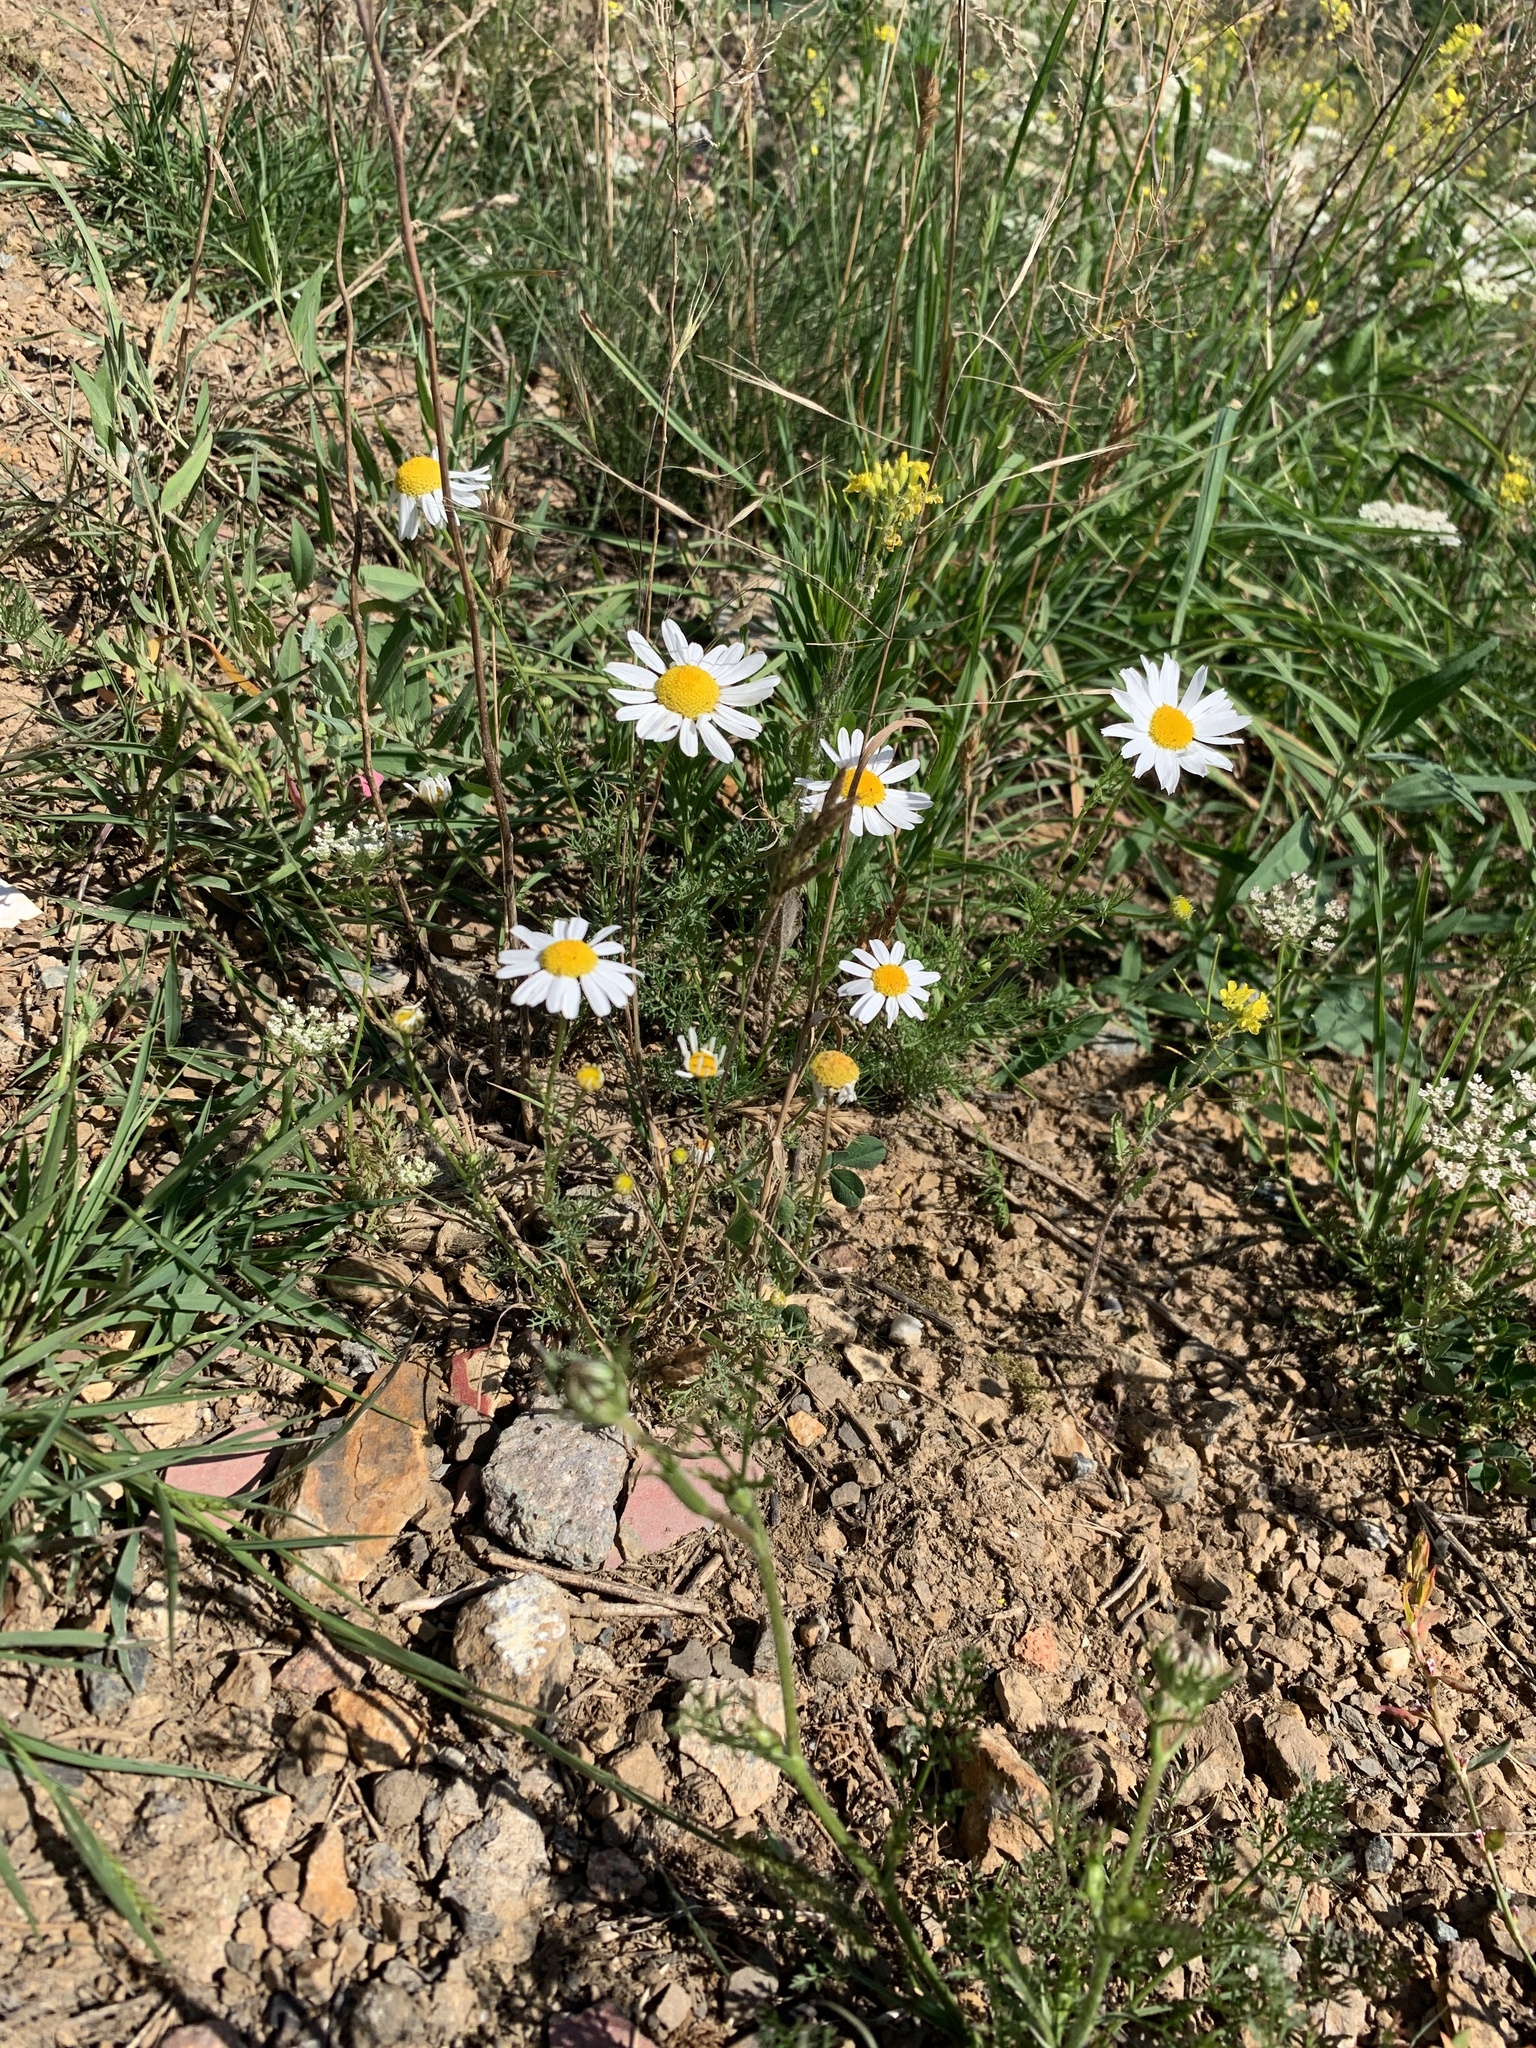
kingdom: Plantae
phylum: Tracheophyta
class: Magnoliopsida
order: Asterales
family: Asteraceae
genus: Tripleurospermum
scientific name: Tripleurospermum inodorum
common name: Scentless mayweed
